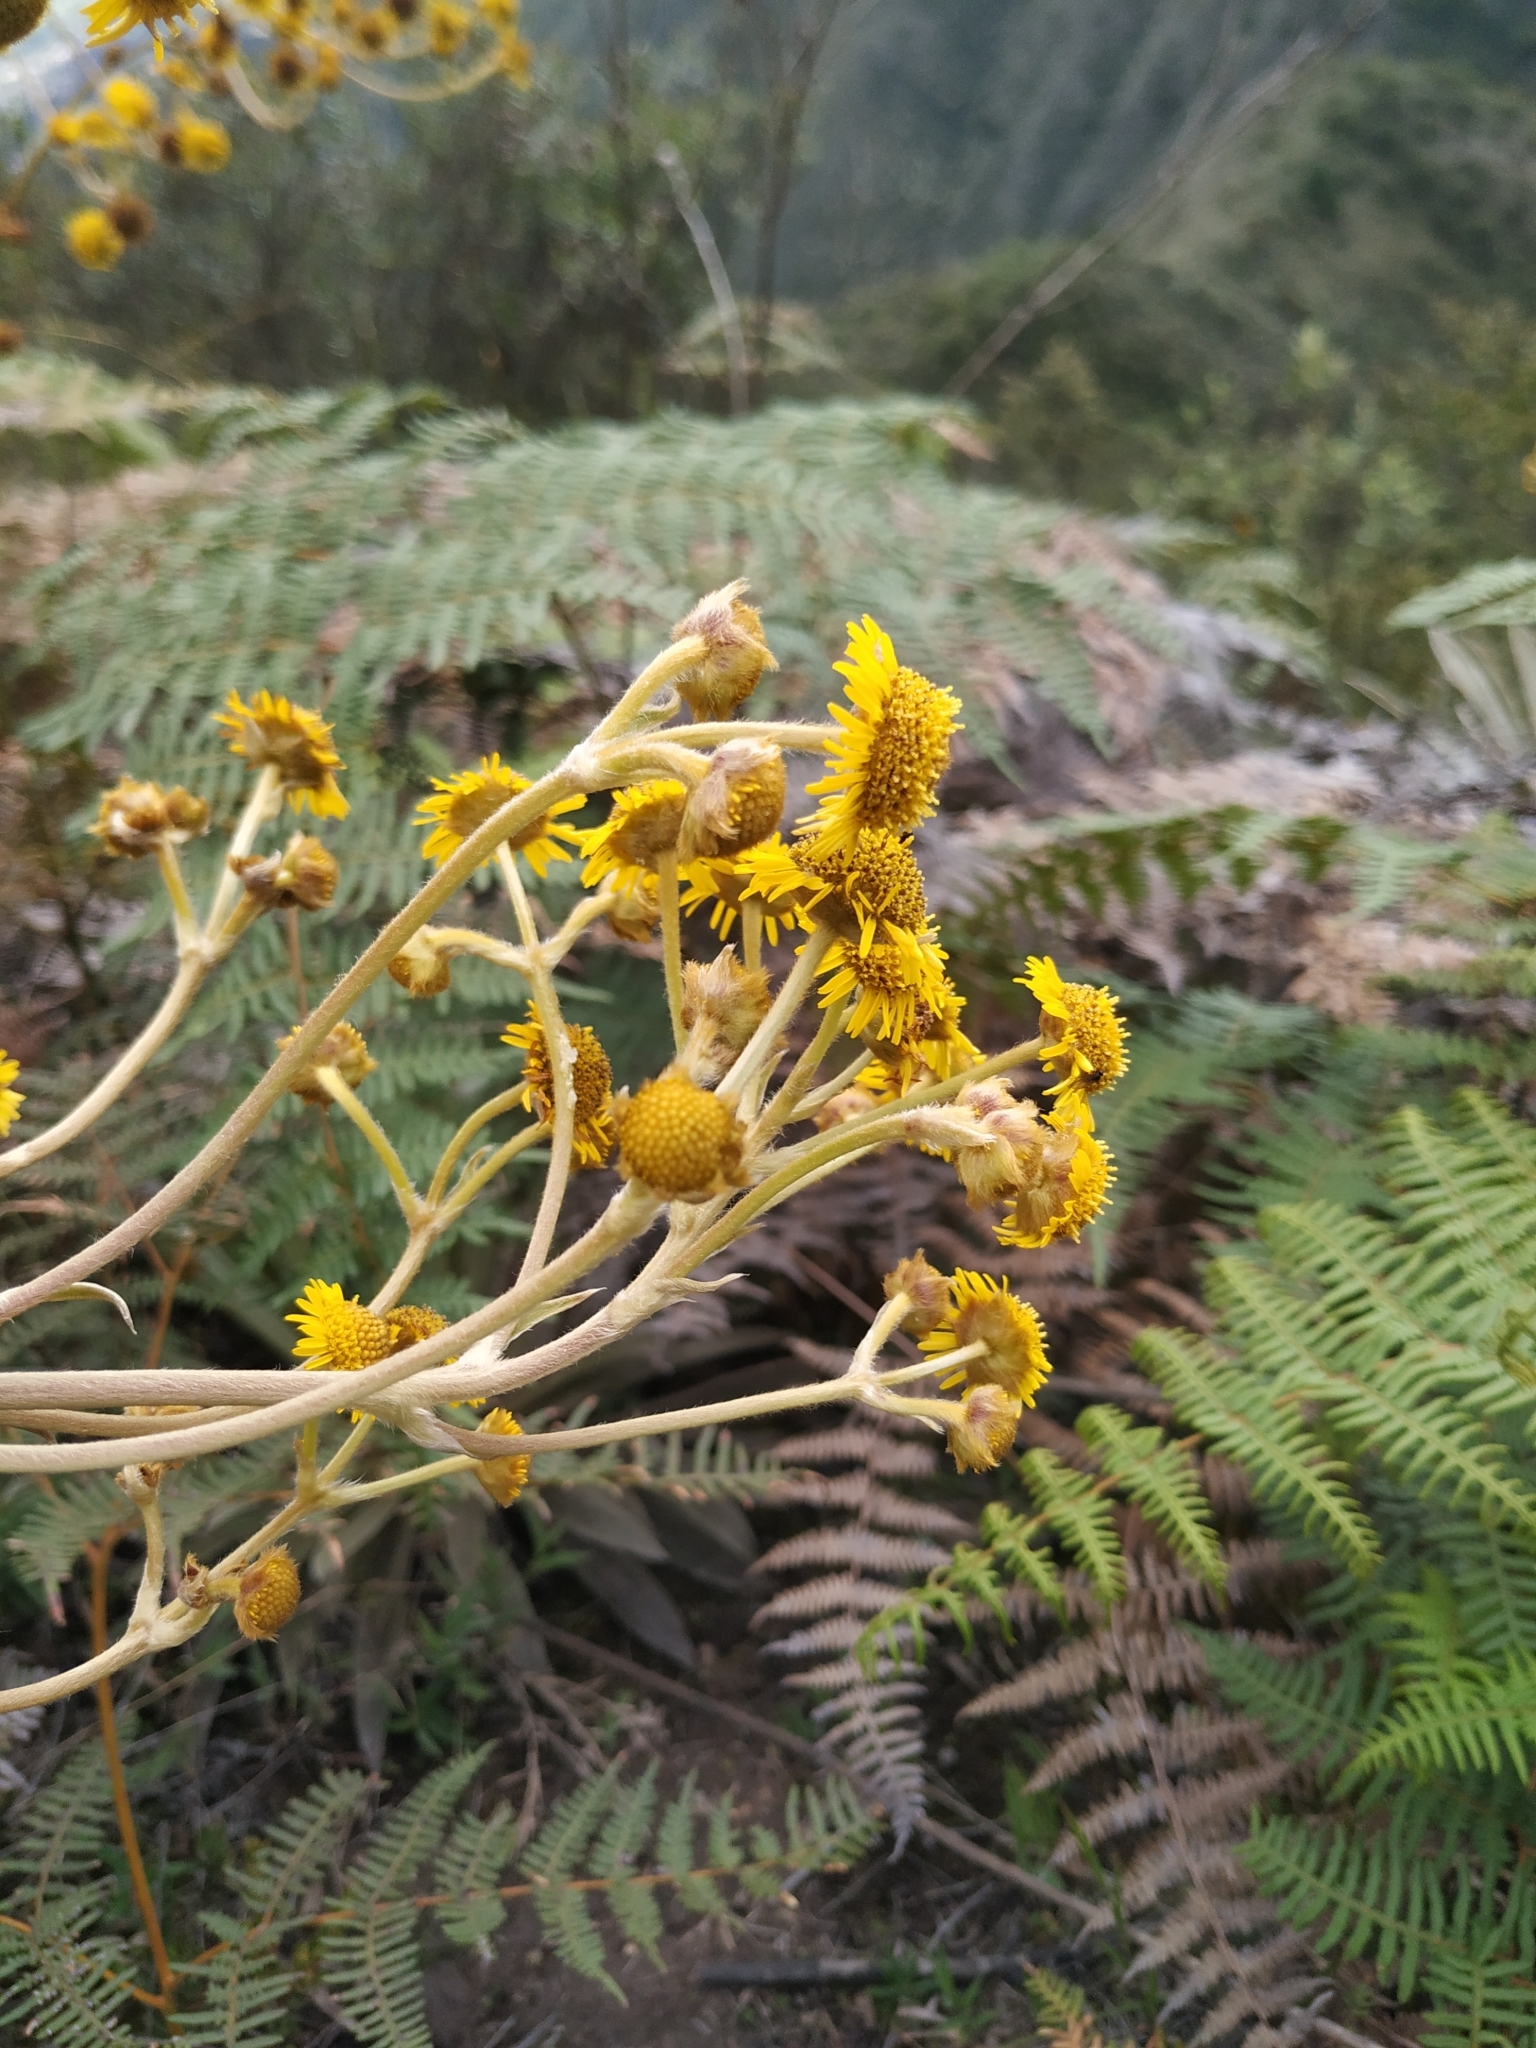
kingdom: Plantae
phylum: Tracheophyta
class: Magnoliopsida
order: Asterales
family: Asteraceae
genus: Espeletia
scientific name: Espeletia boyacensis
